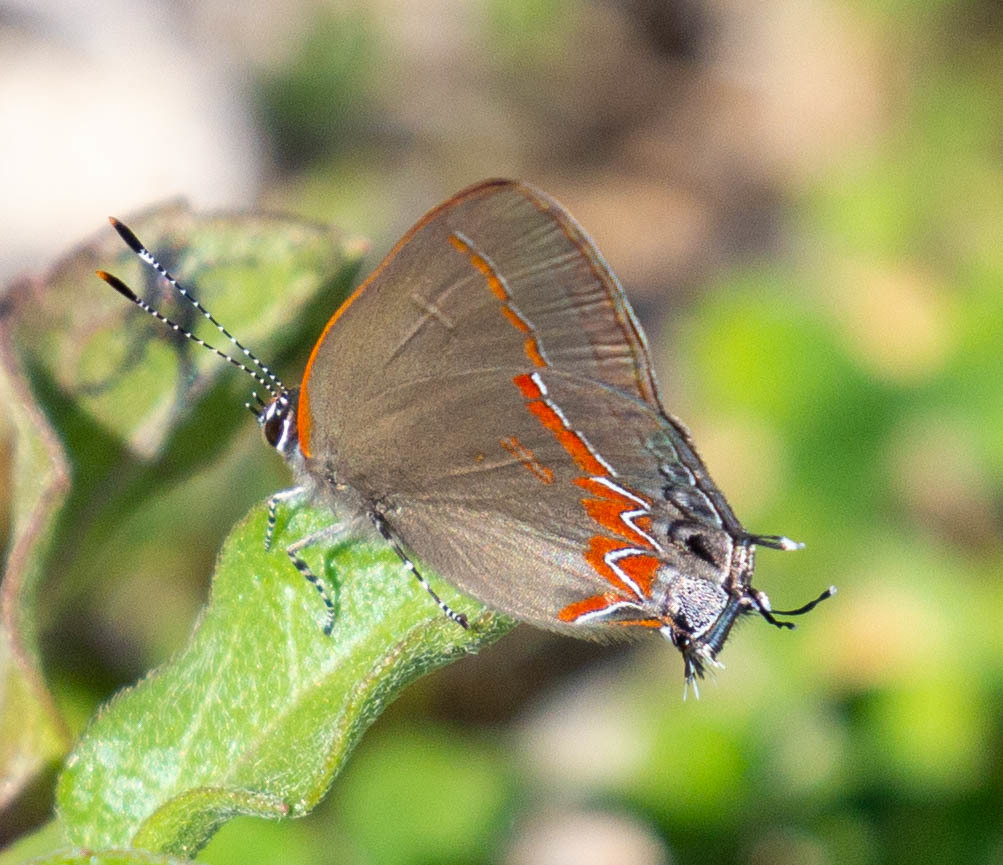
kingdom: Animalia
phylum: Arthropoda
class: Insecta
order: Lepidoptera
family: Lycaenidae
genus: Calycopis
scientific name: Calycopis cecrops
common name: Red-banded hairstreak
